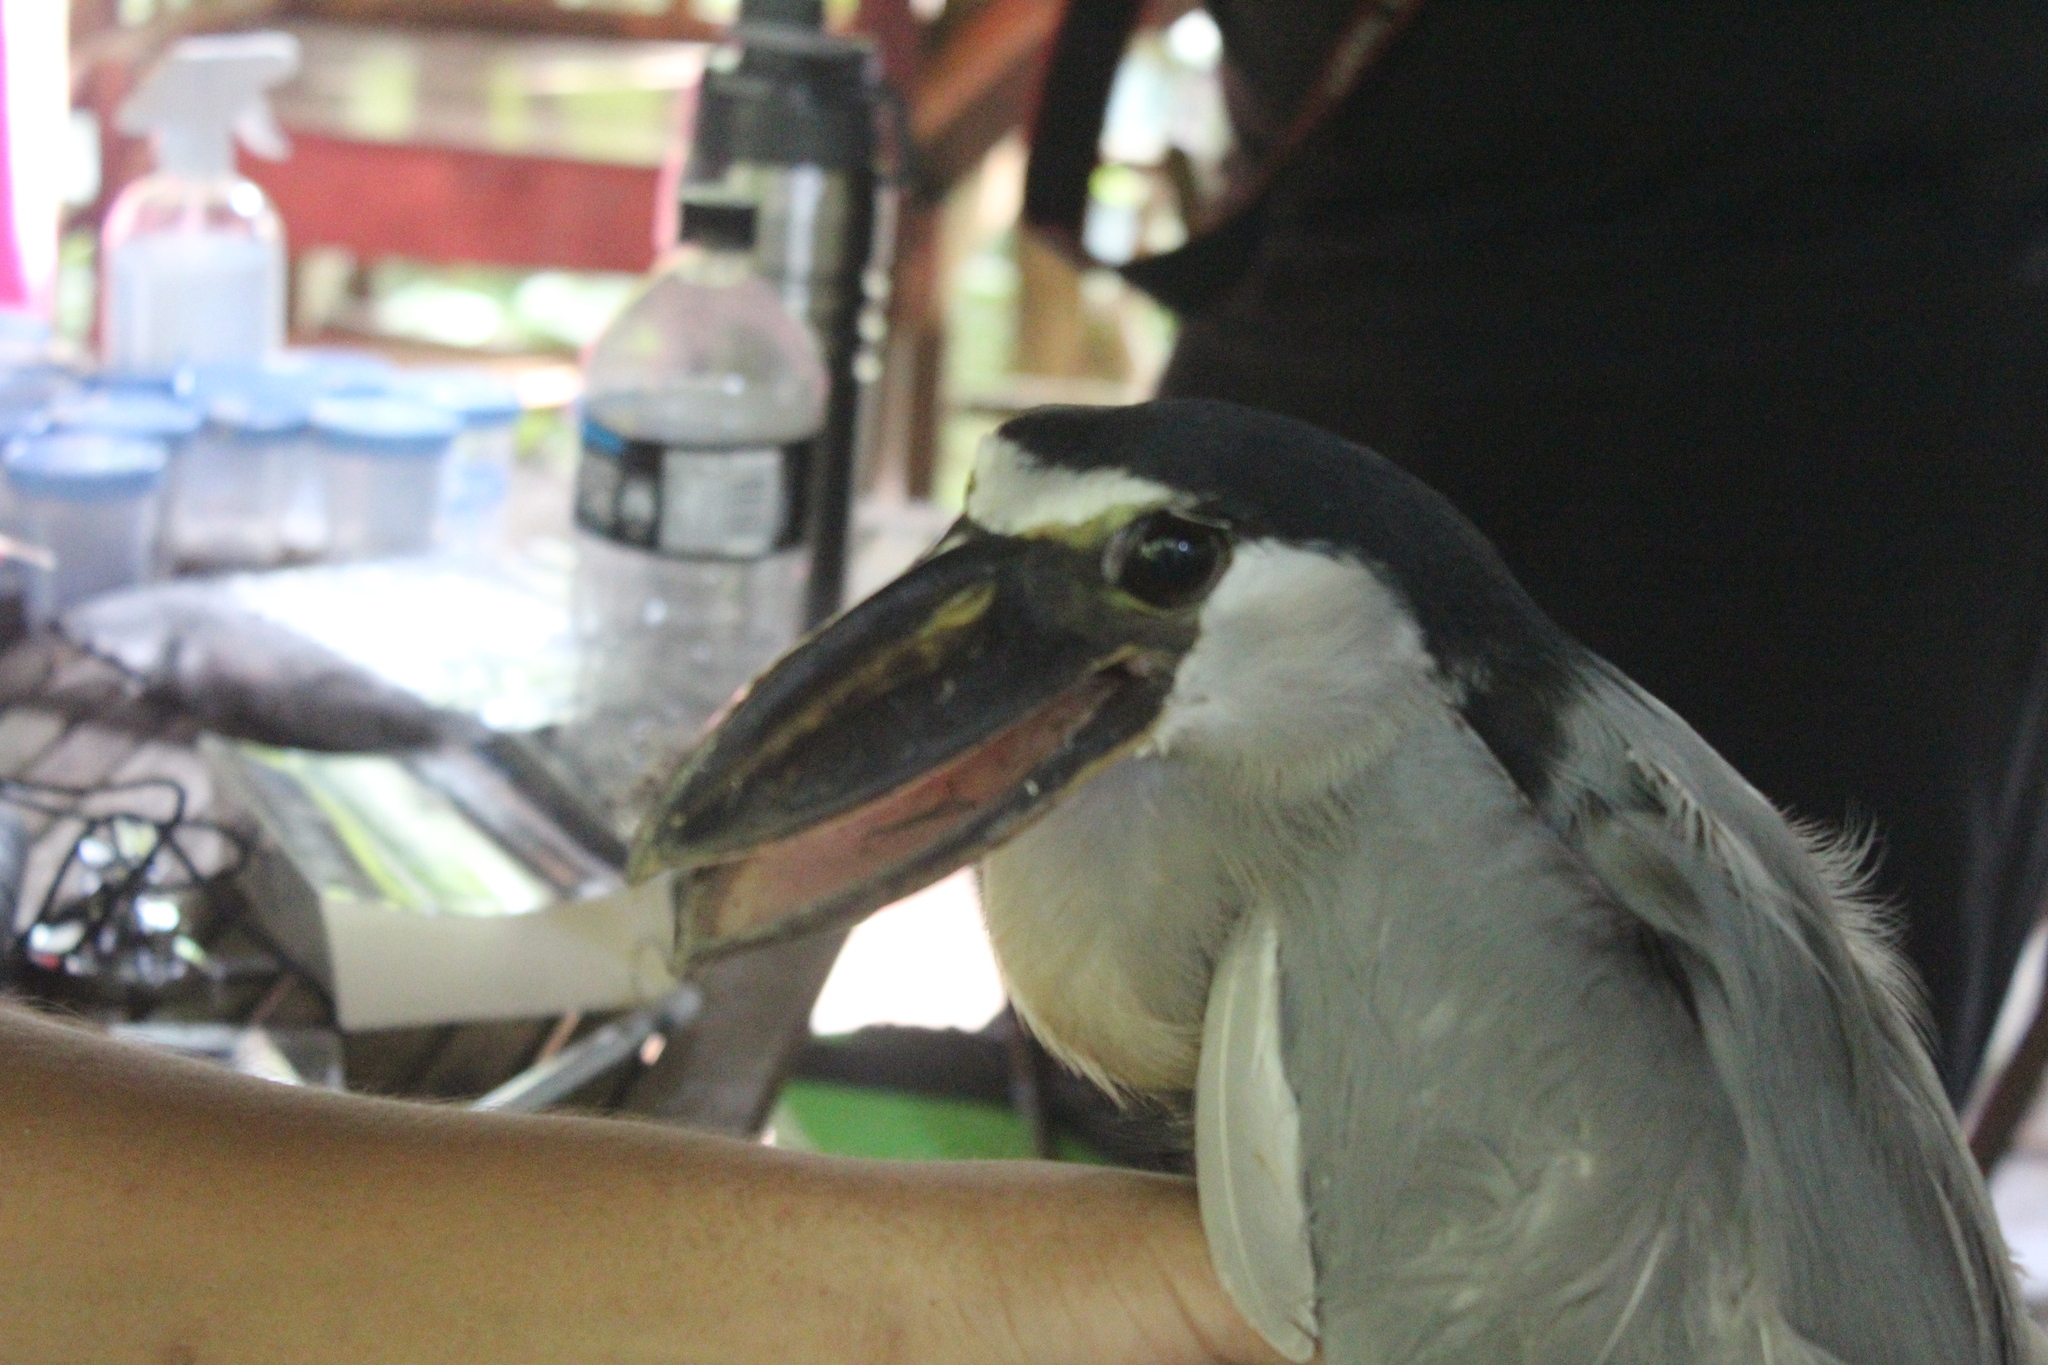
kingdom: Animalia
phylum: Chordata
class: Aves
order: Pelecaniformes
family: Ardeidae
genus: Cochlearius
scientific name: Cochlearius cochlearius
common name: Boat-billed heron
